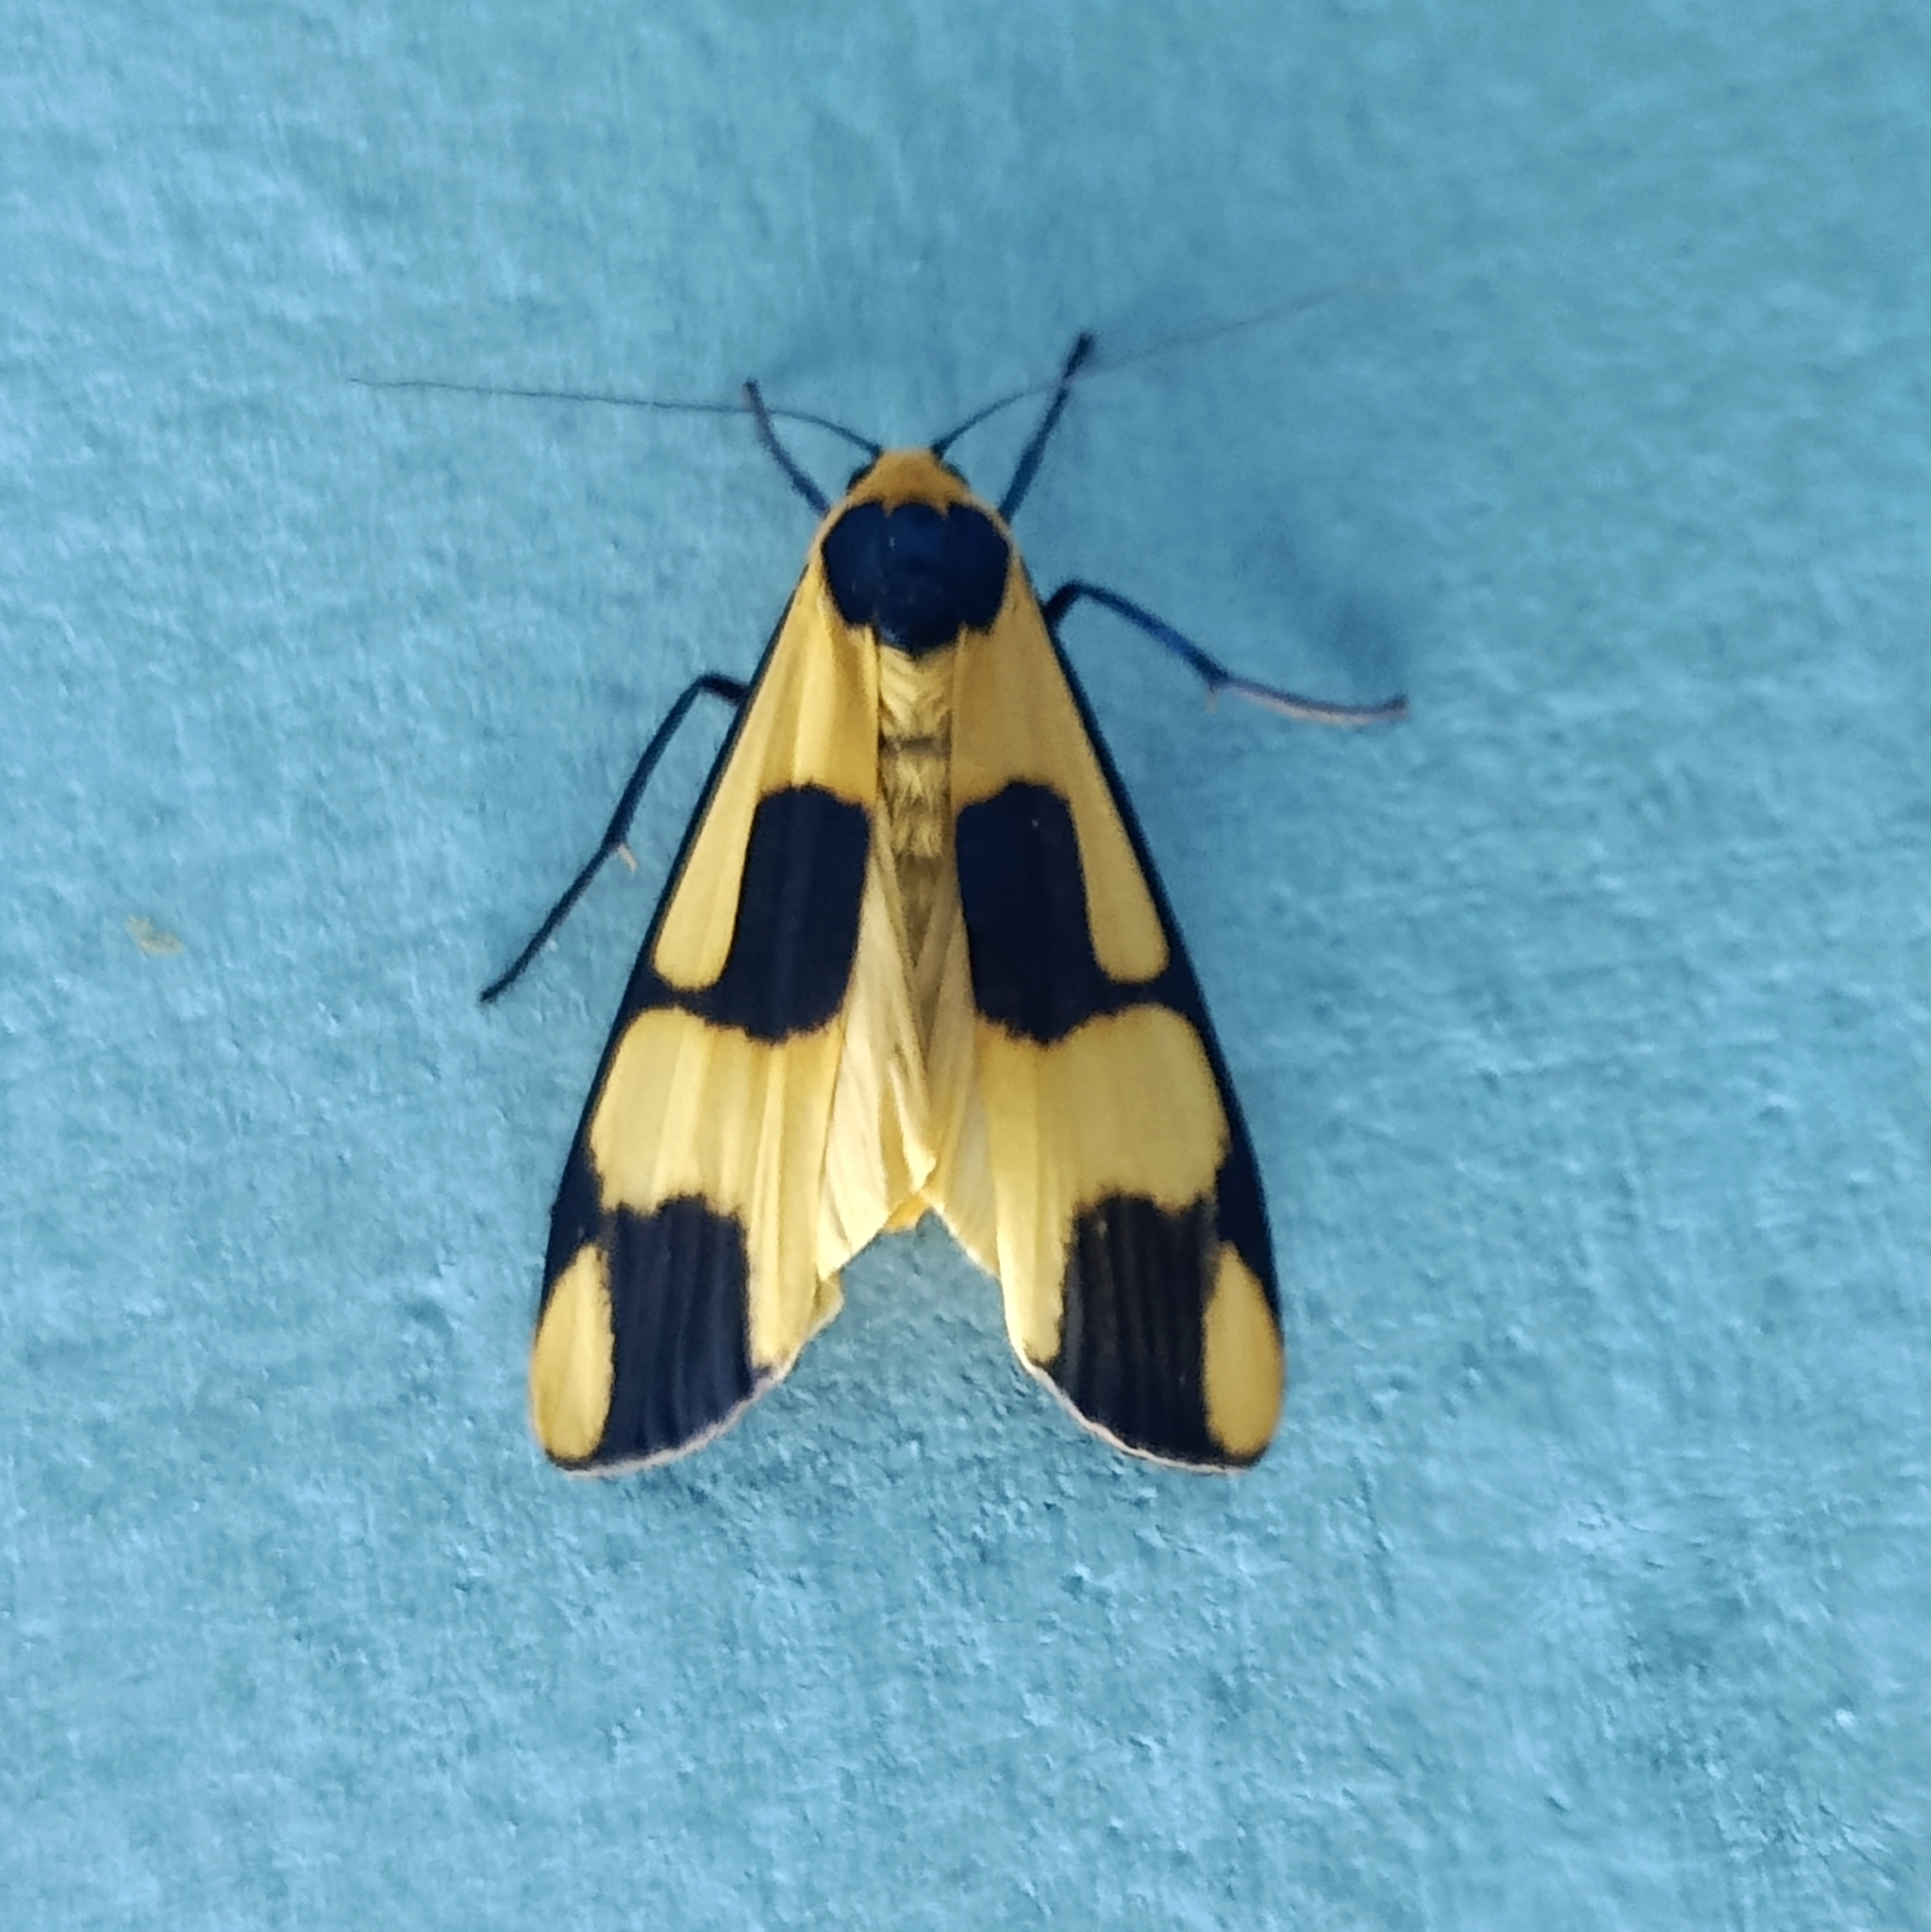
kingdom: Animalia
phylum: Arthropoda
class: Insecta
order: Lepidoptera
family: Erebidae
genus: Oeonistis
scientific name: Oeonistis entella
